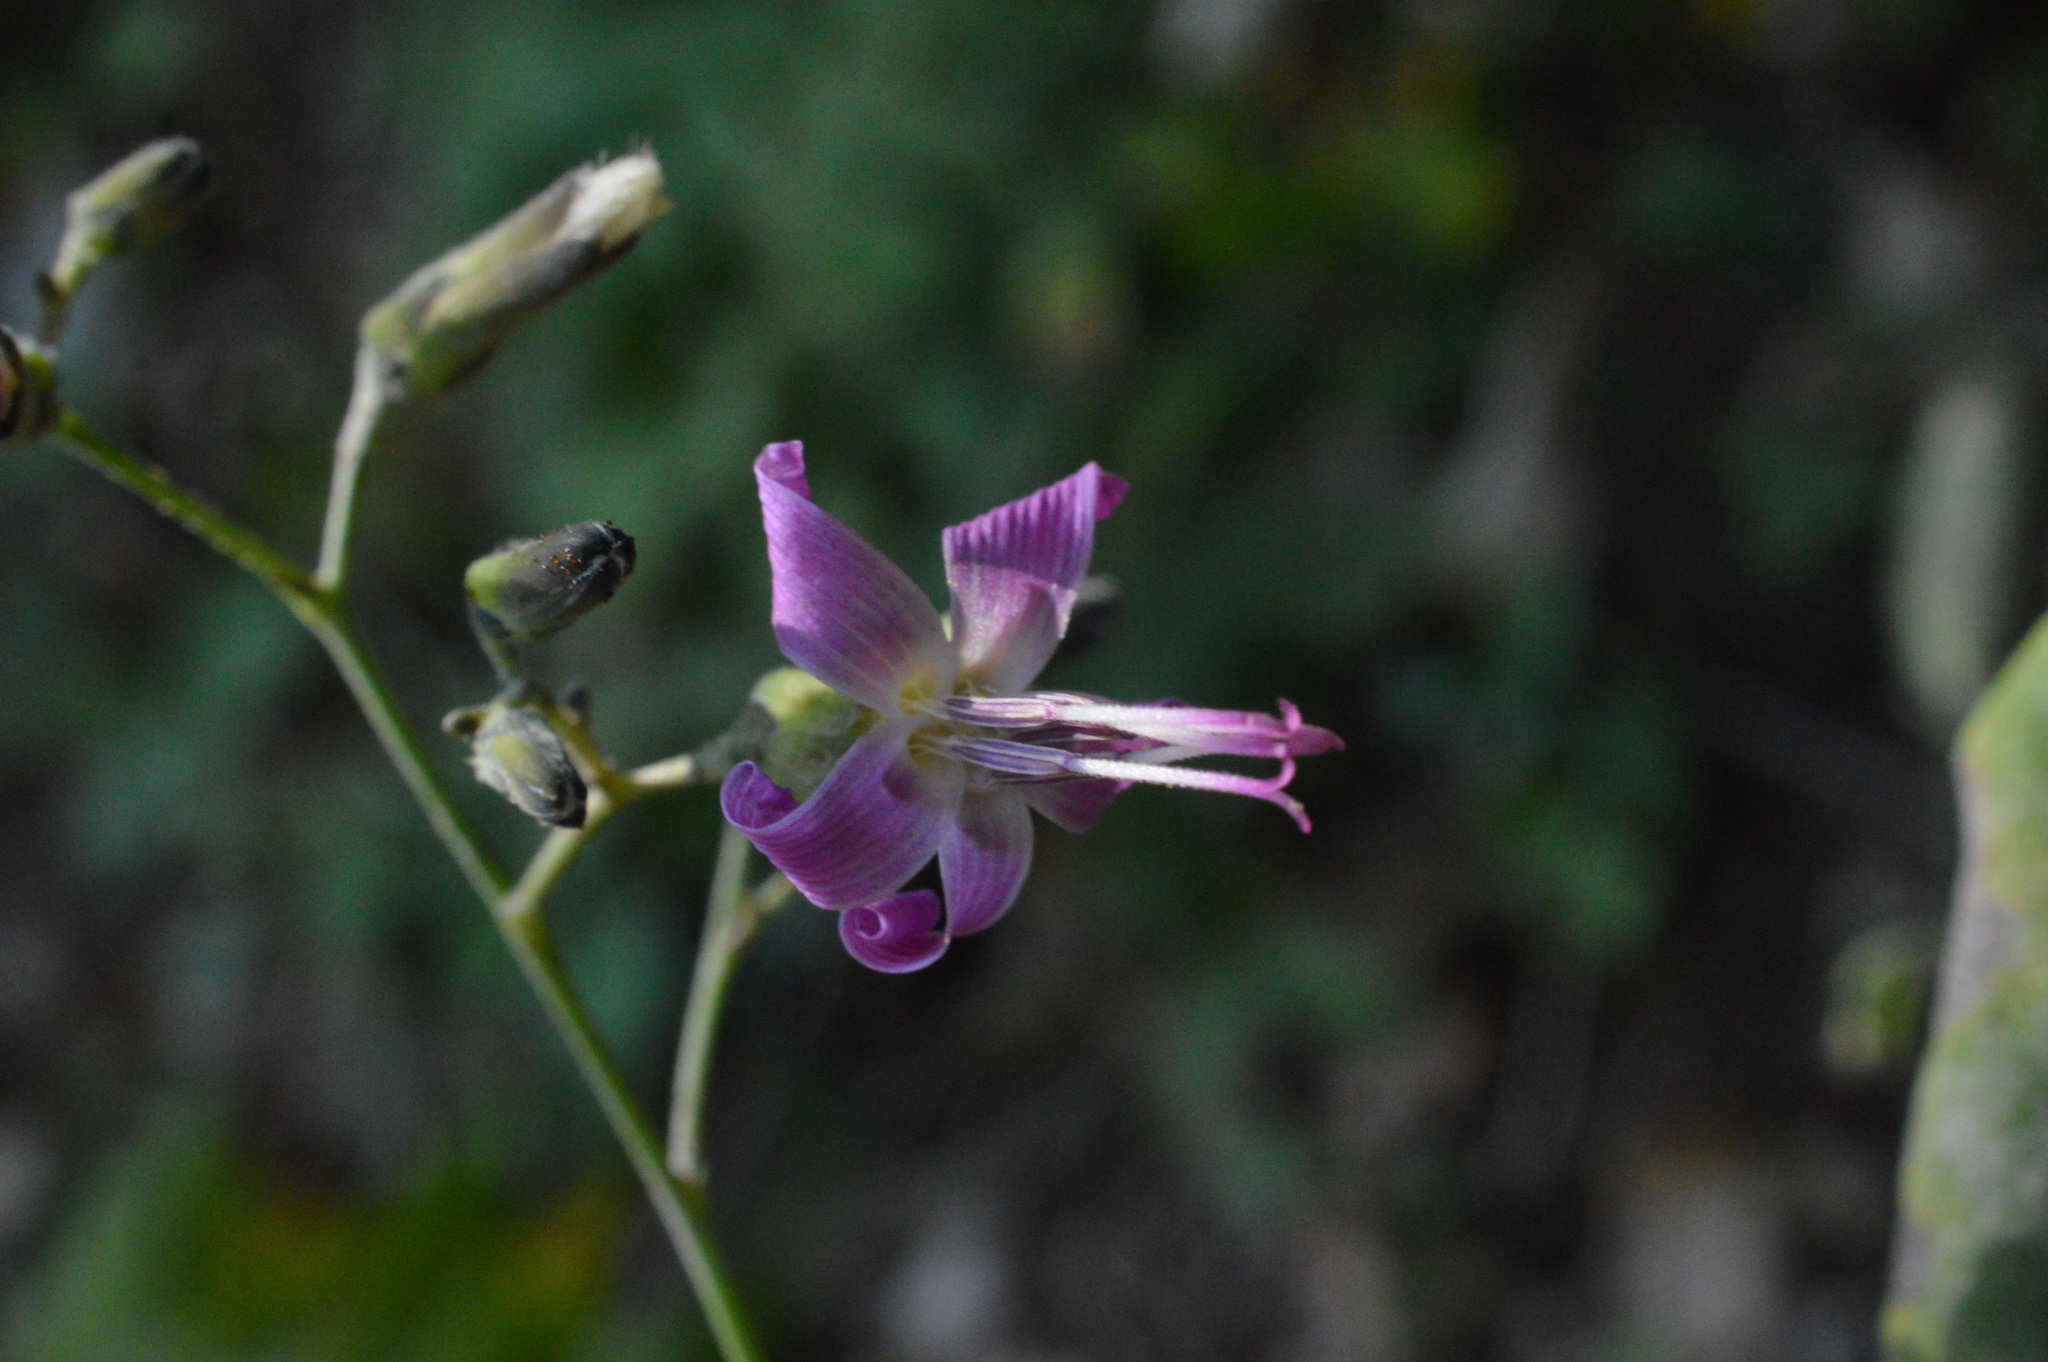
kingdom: Plantae
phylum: Tracheophyta
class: Magnoliopsida
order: Asterales
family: Asteraceae
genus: Prenanthes
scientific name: Prenanthes purpurea
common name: Purple lettuce
